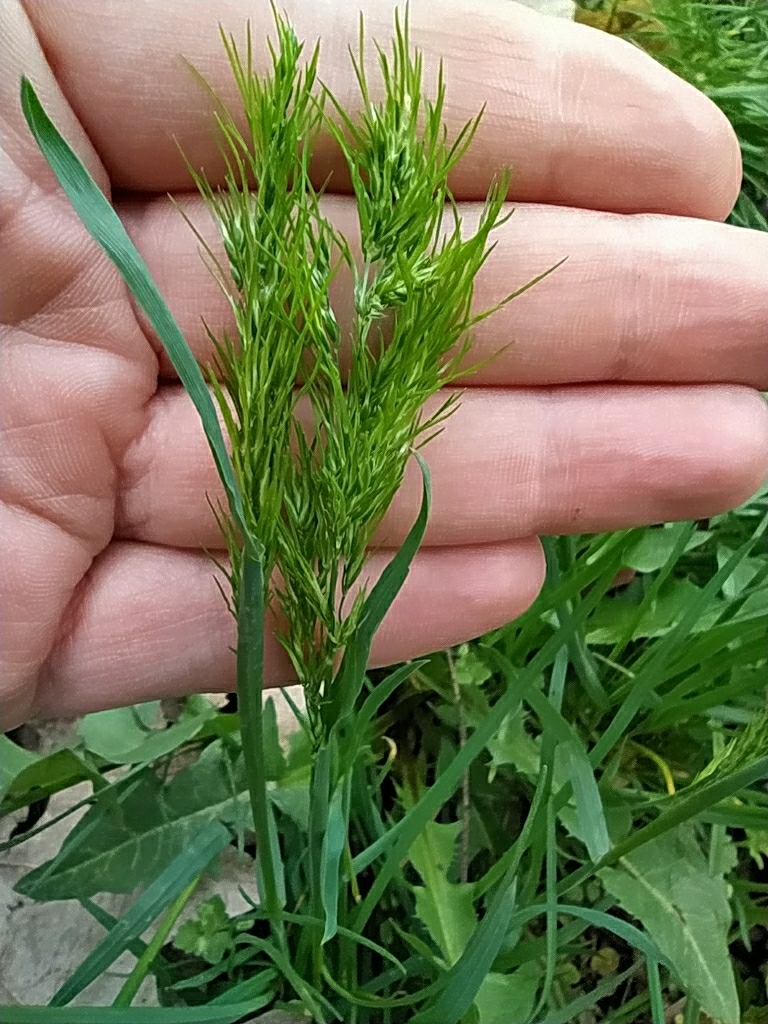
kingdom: Plantae
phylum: Tracheophyta
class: Liliopsida
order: Poales
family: Poaceae
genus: Poa
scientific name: Poa bulbosa
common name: Bulbous bluegrass
